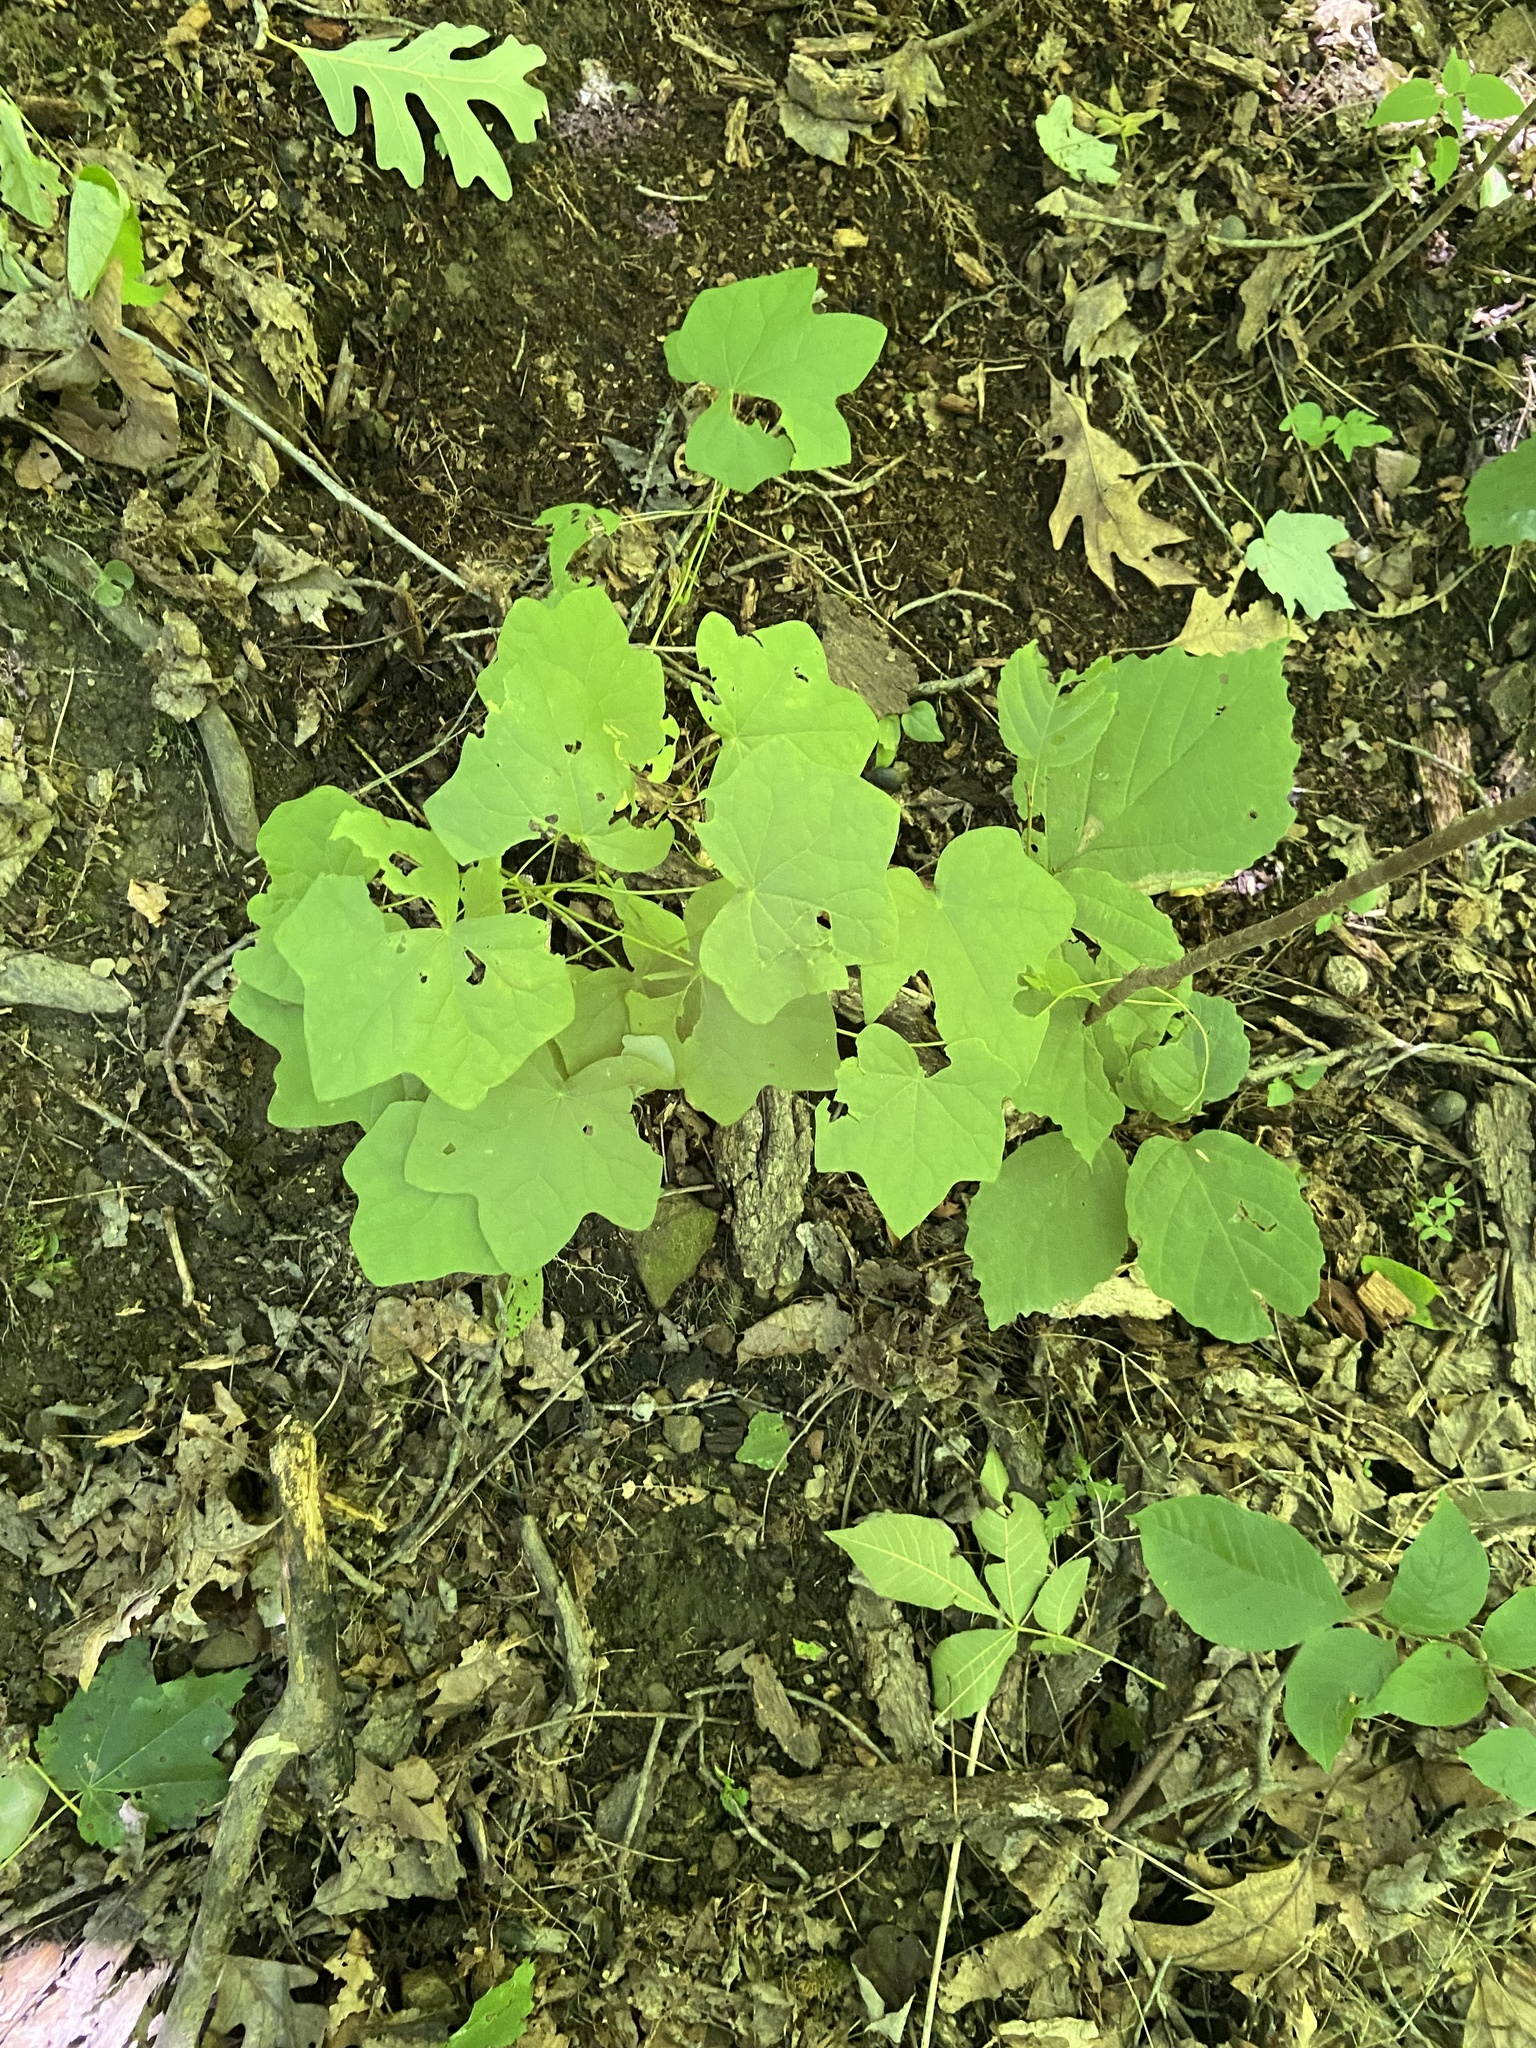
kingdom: Plantae
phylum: Tracheophyta
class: Magnoliopsida
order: Ranunculales
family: Menispermaceae
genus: Menispermum
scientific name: Menispermum canadense
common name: Moonseed
